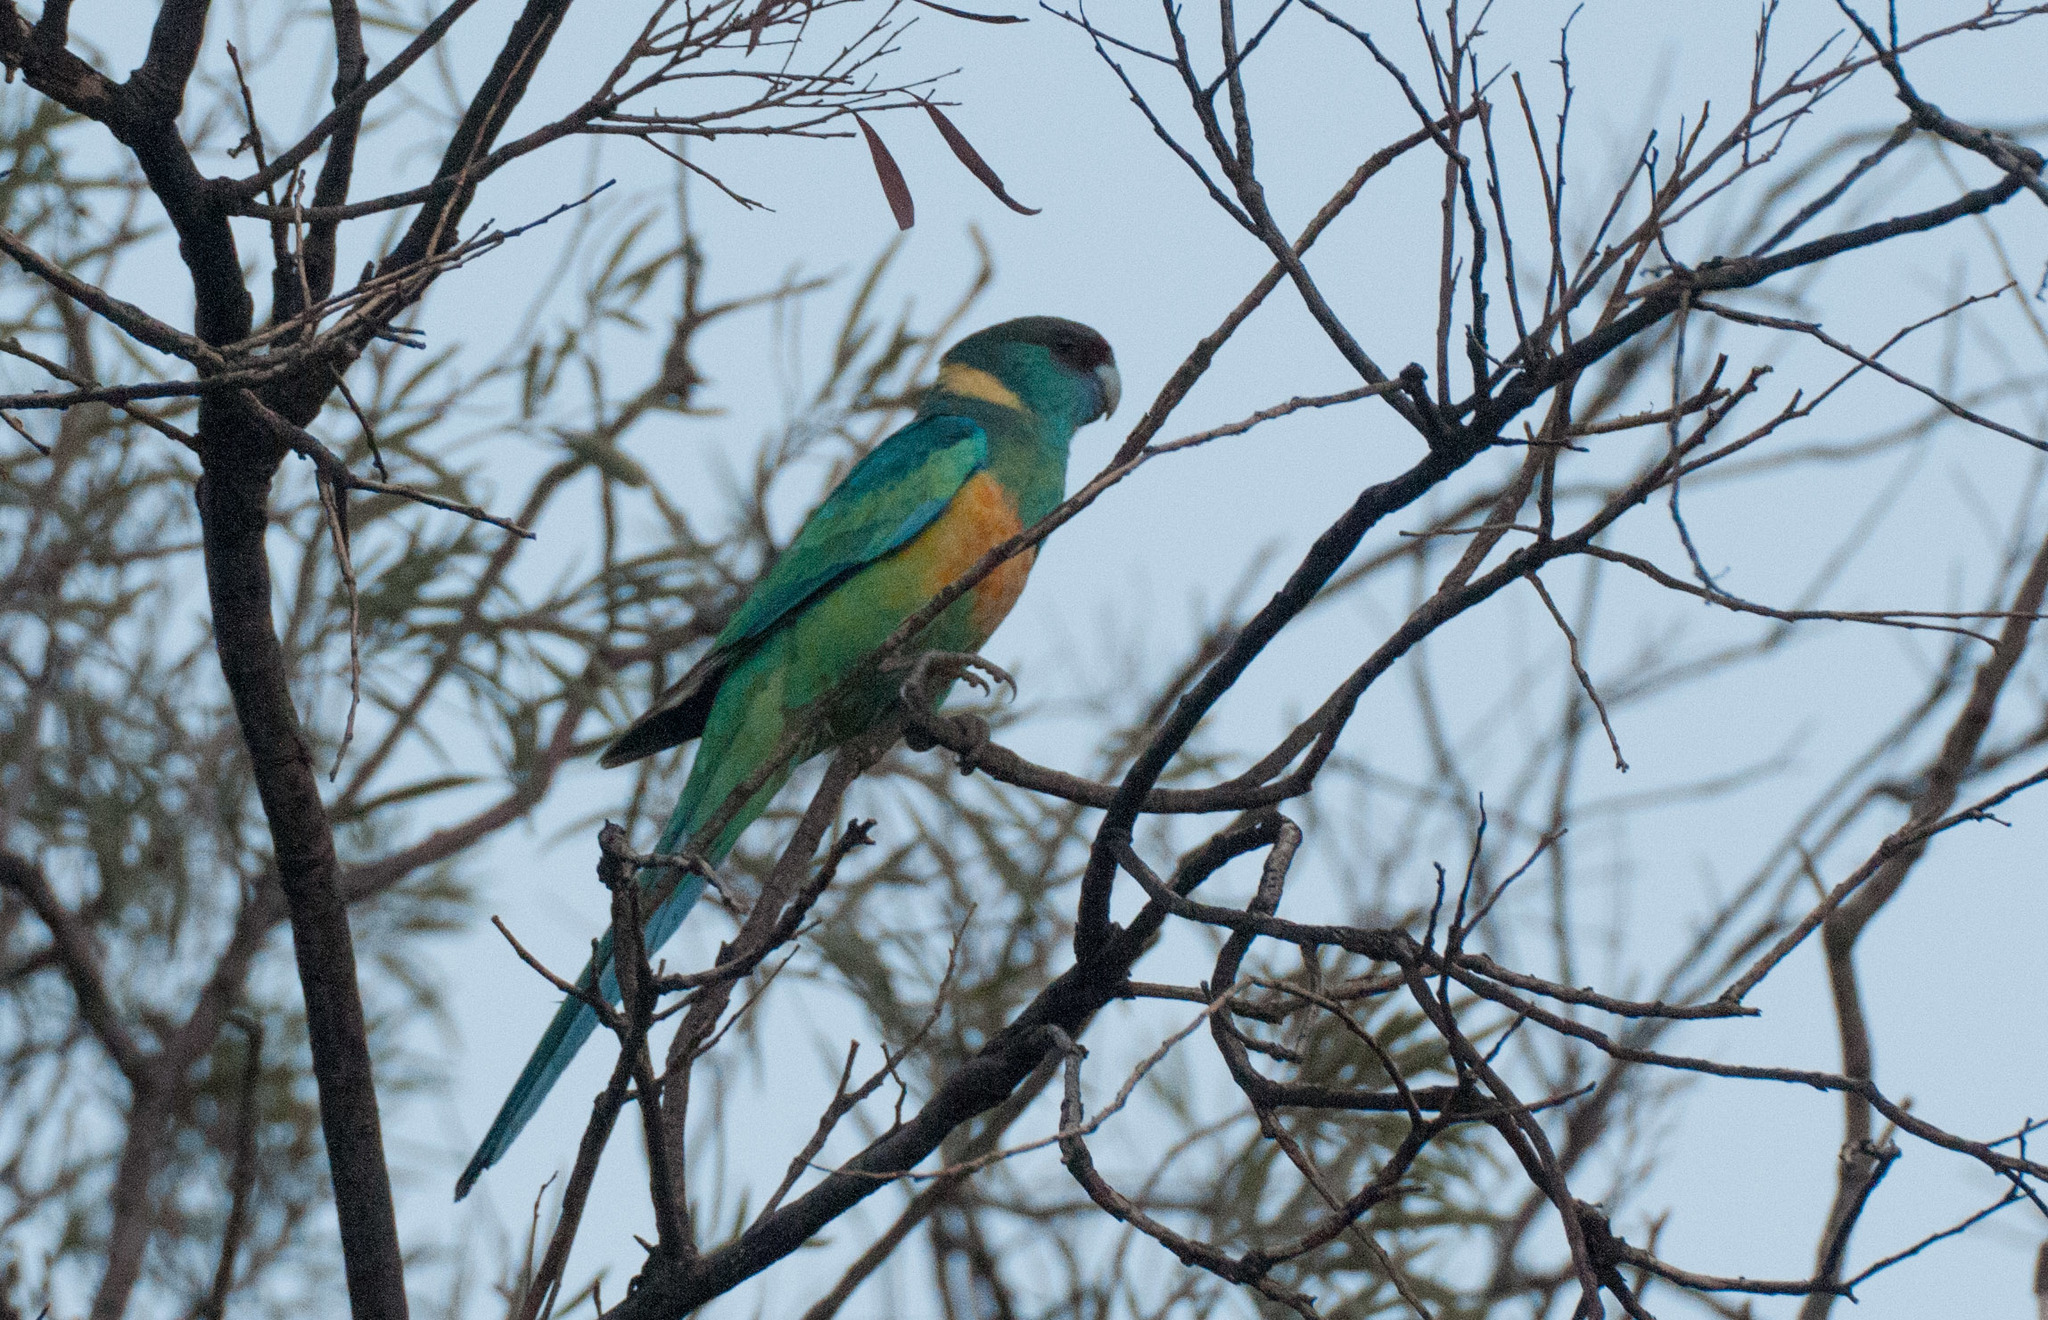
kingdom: Animalia
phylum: Chordata
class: Aves
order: Psittaciformes
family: Psittacidae
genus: Barnardius
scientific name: Barnardius zonarius
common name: Australian ringneck
